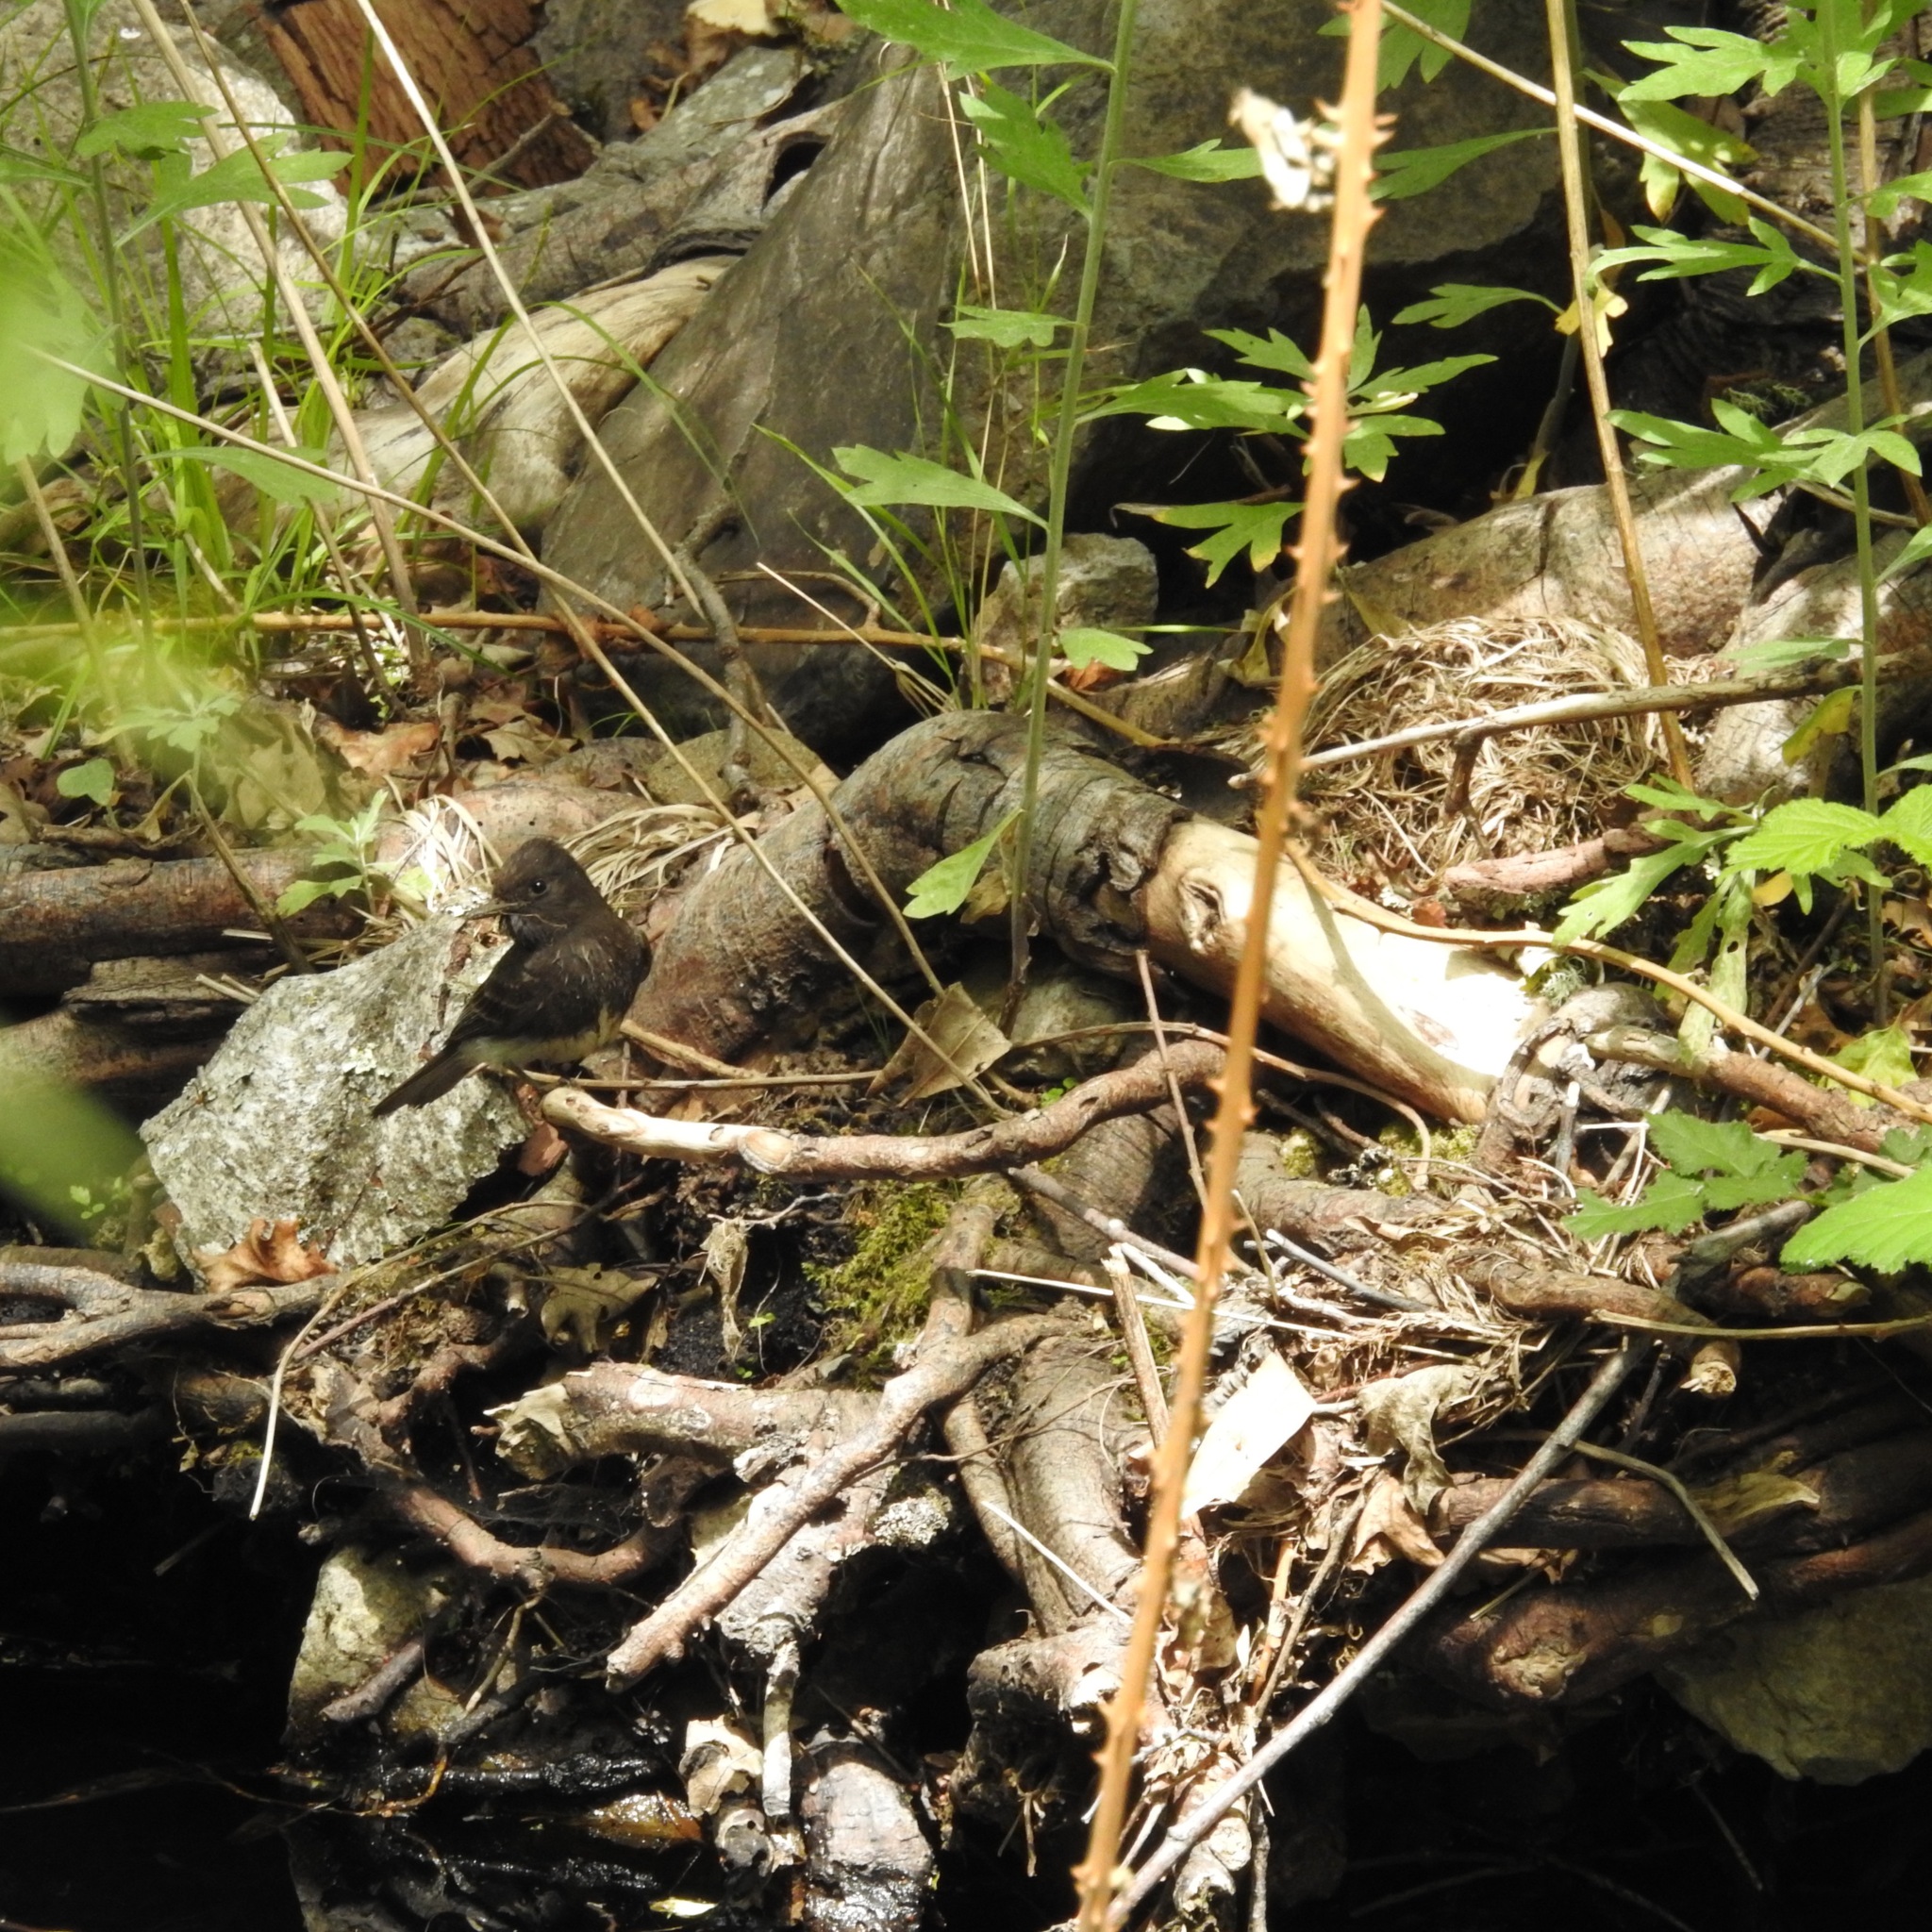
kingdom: Animalia
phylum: Chordata
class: Aves
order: Passeriformes
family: Tyrannidae
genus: Sayornis
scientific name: Sayornis nigricans
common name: Black phoebe
